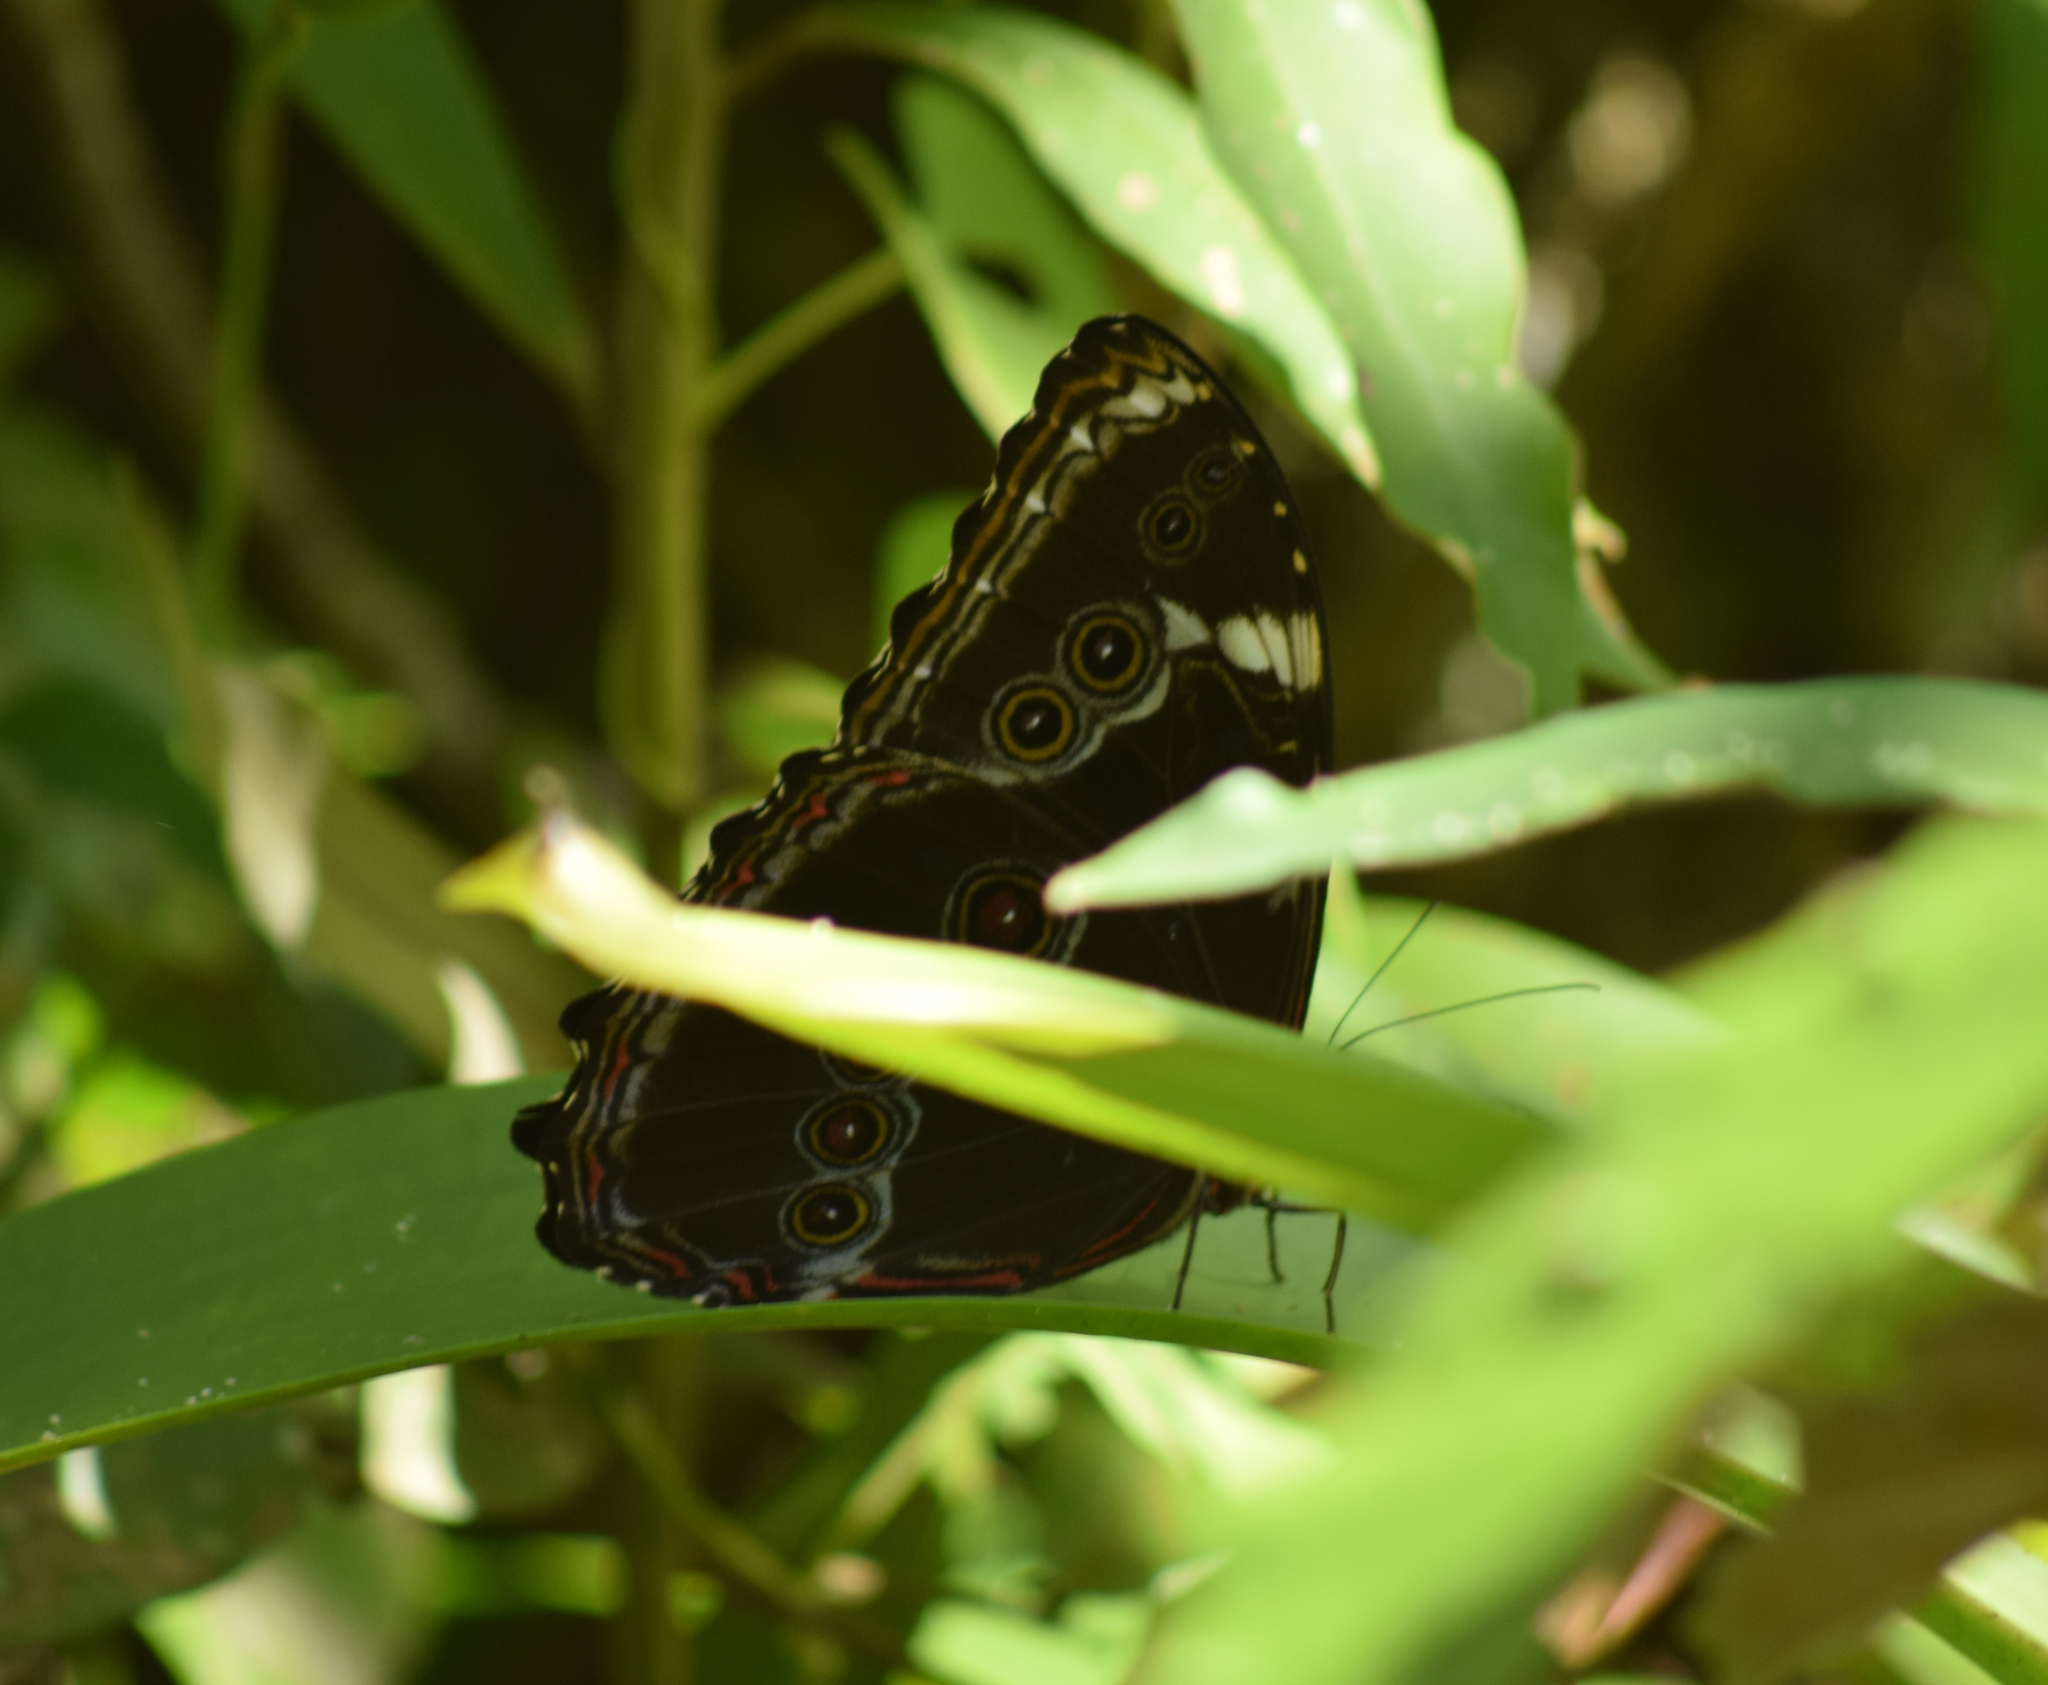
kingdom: Animalia
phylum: Arthropoda
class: Insecta
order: Lepidoptera
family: Nymphalidae
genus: Morpho
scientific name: Morpho helenor
